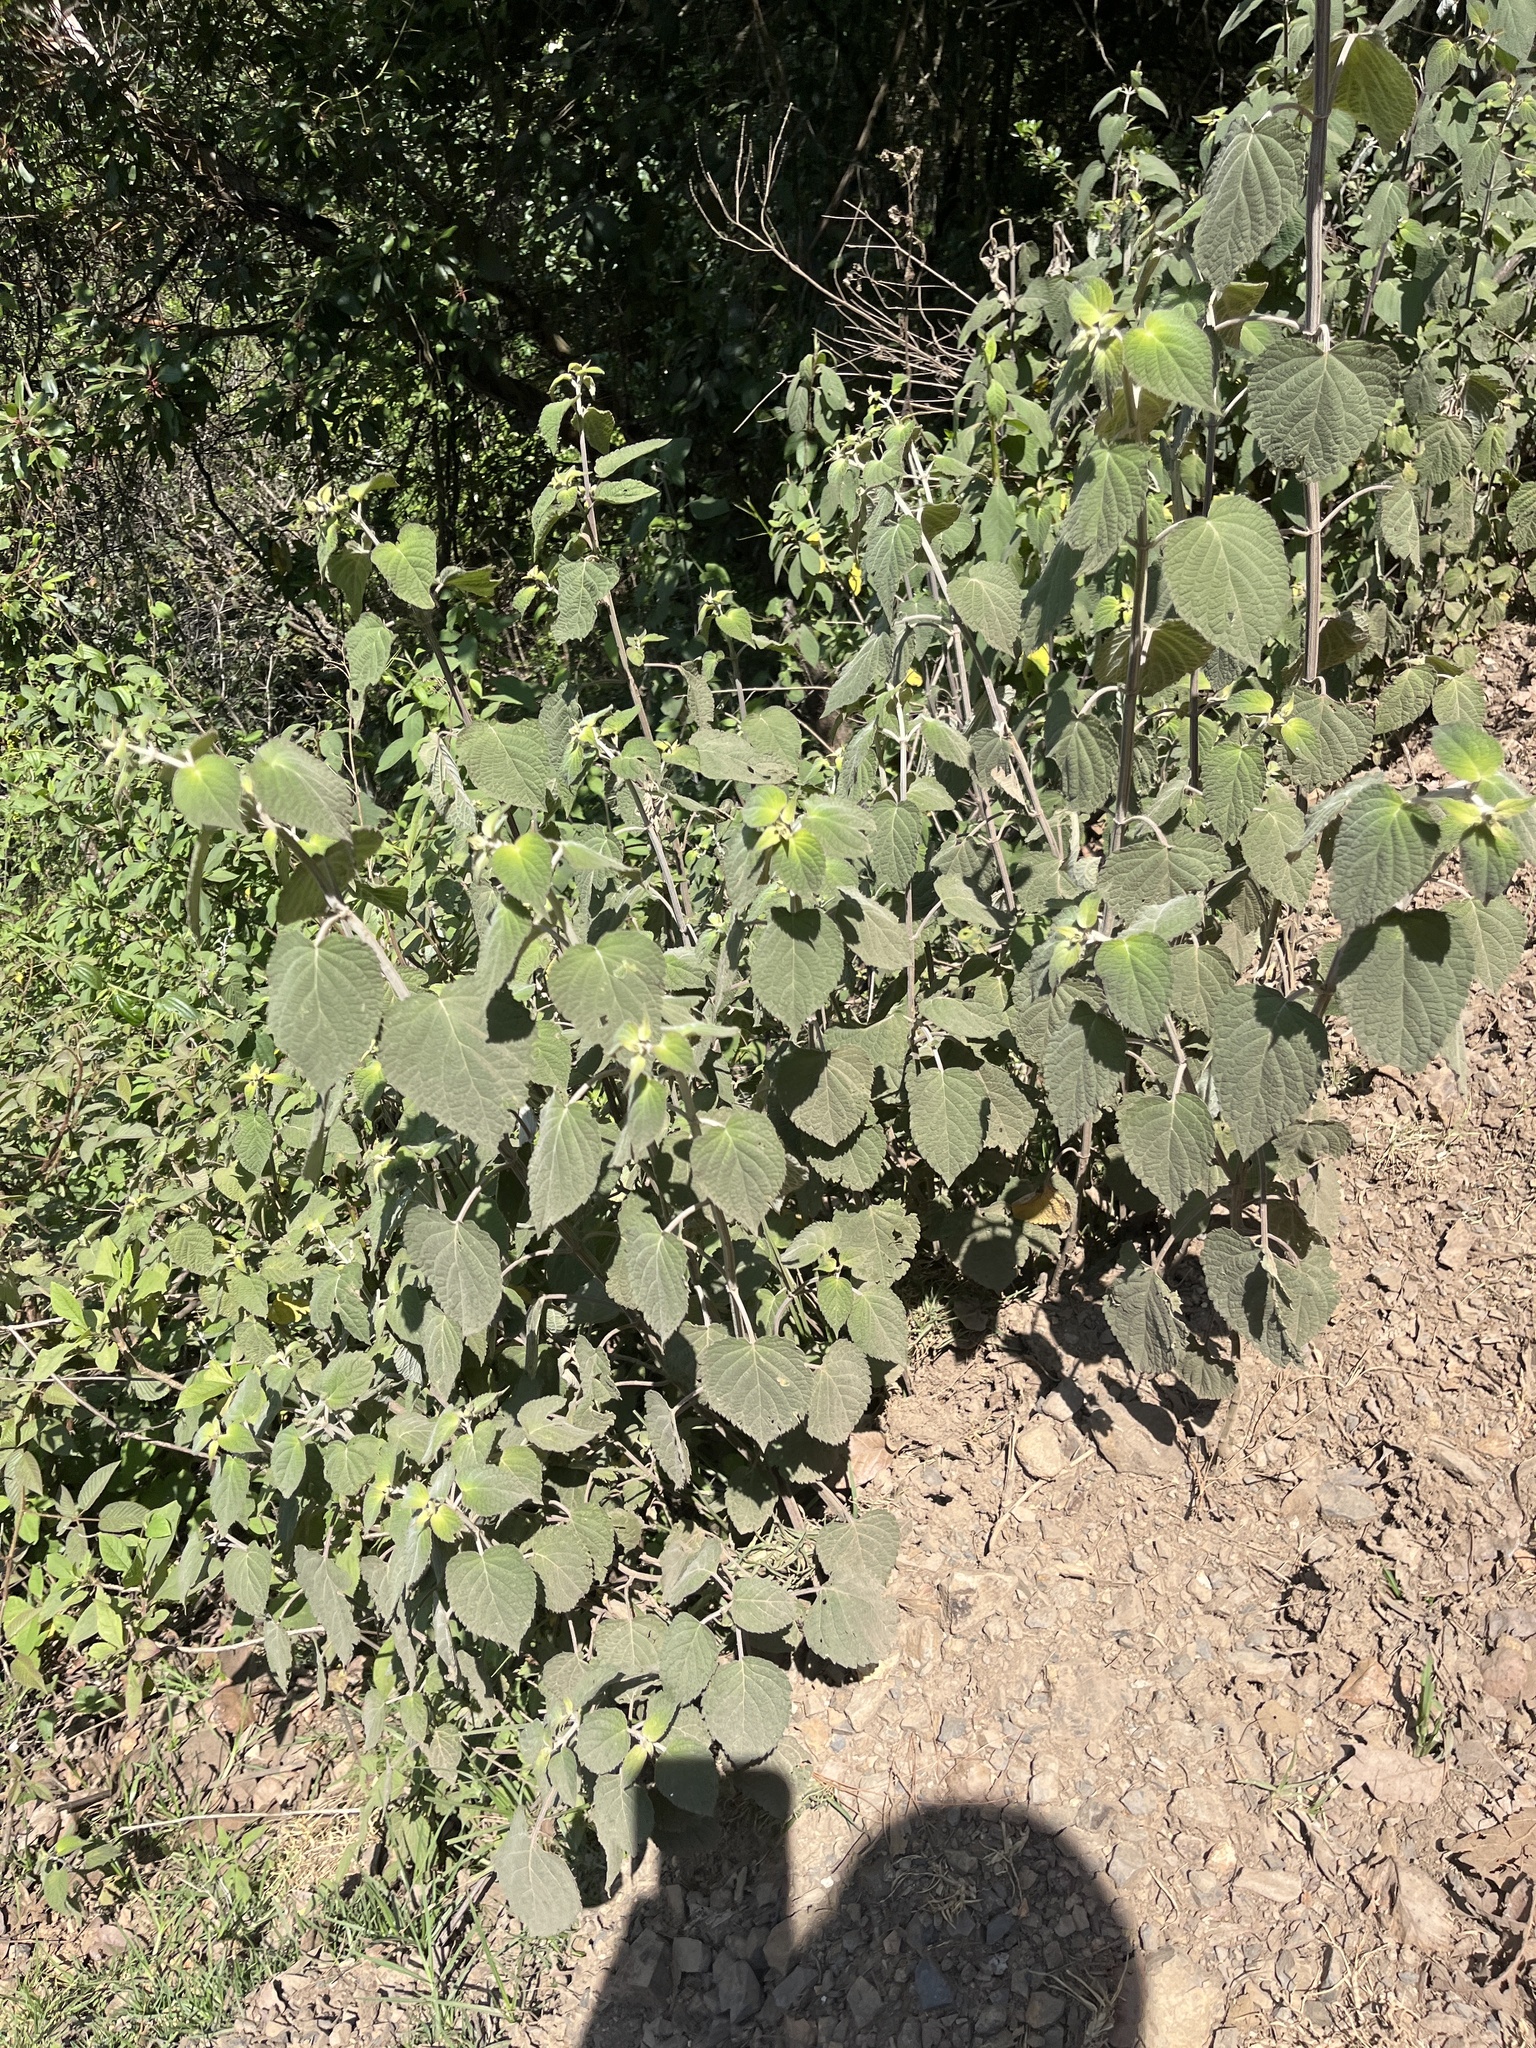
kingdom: Plantae
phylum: Tracheophyta
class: Magnoliopsida
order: Lamiales
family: Lamiaceae
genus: Salvia
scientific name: Salvia mexicana
